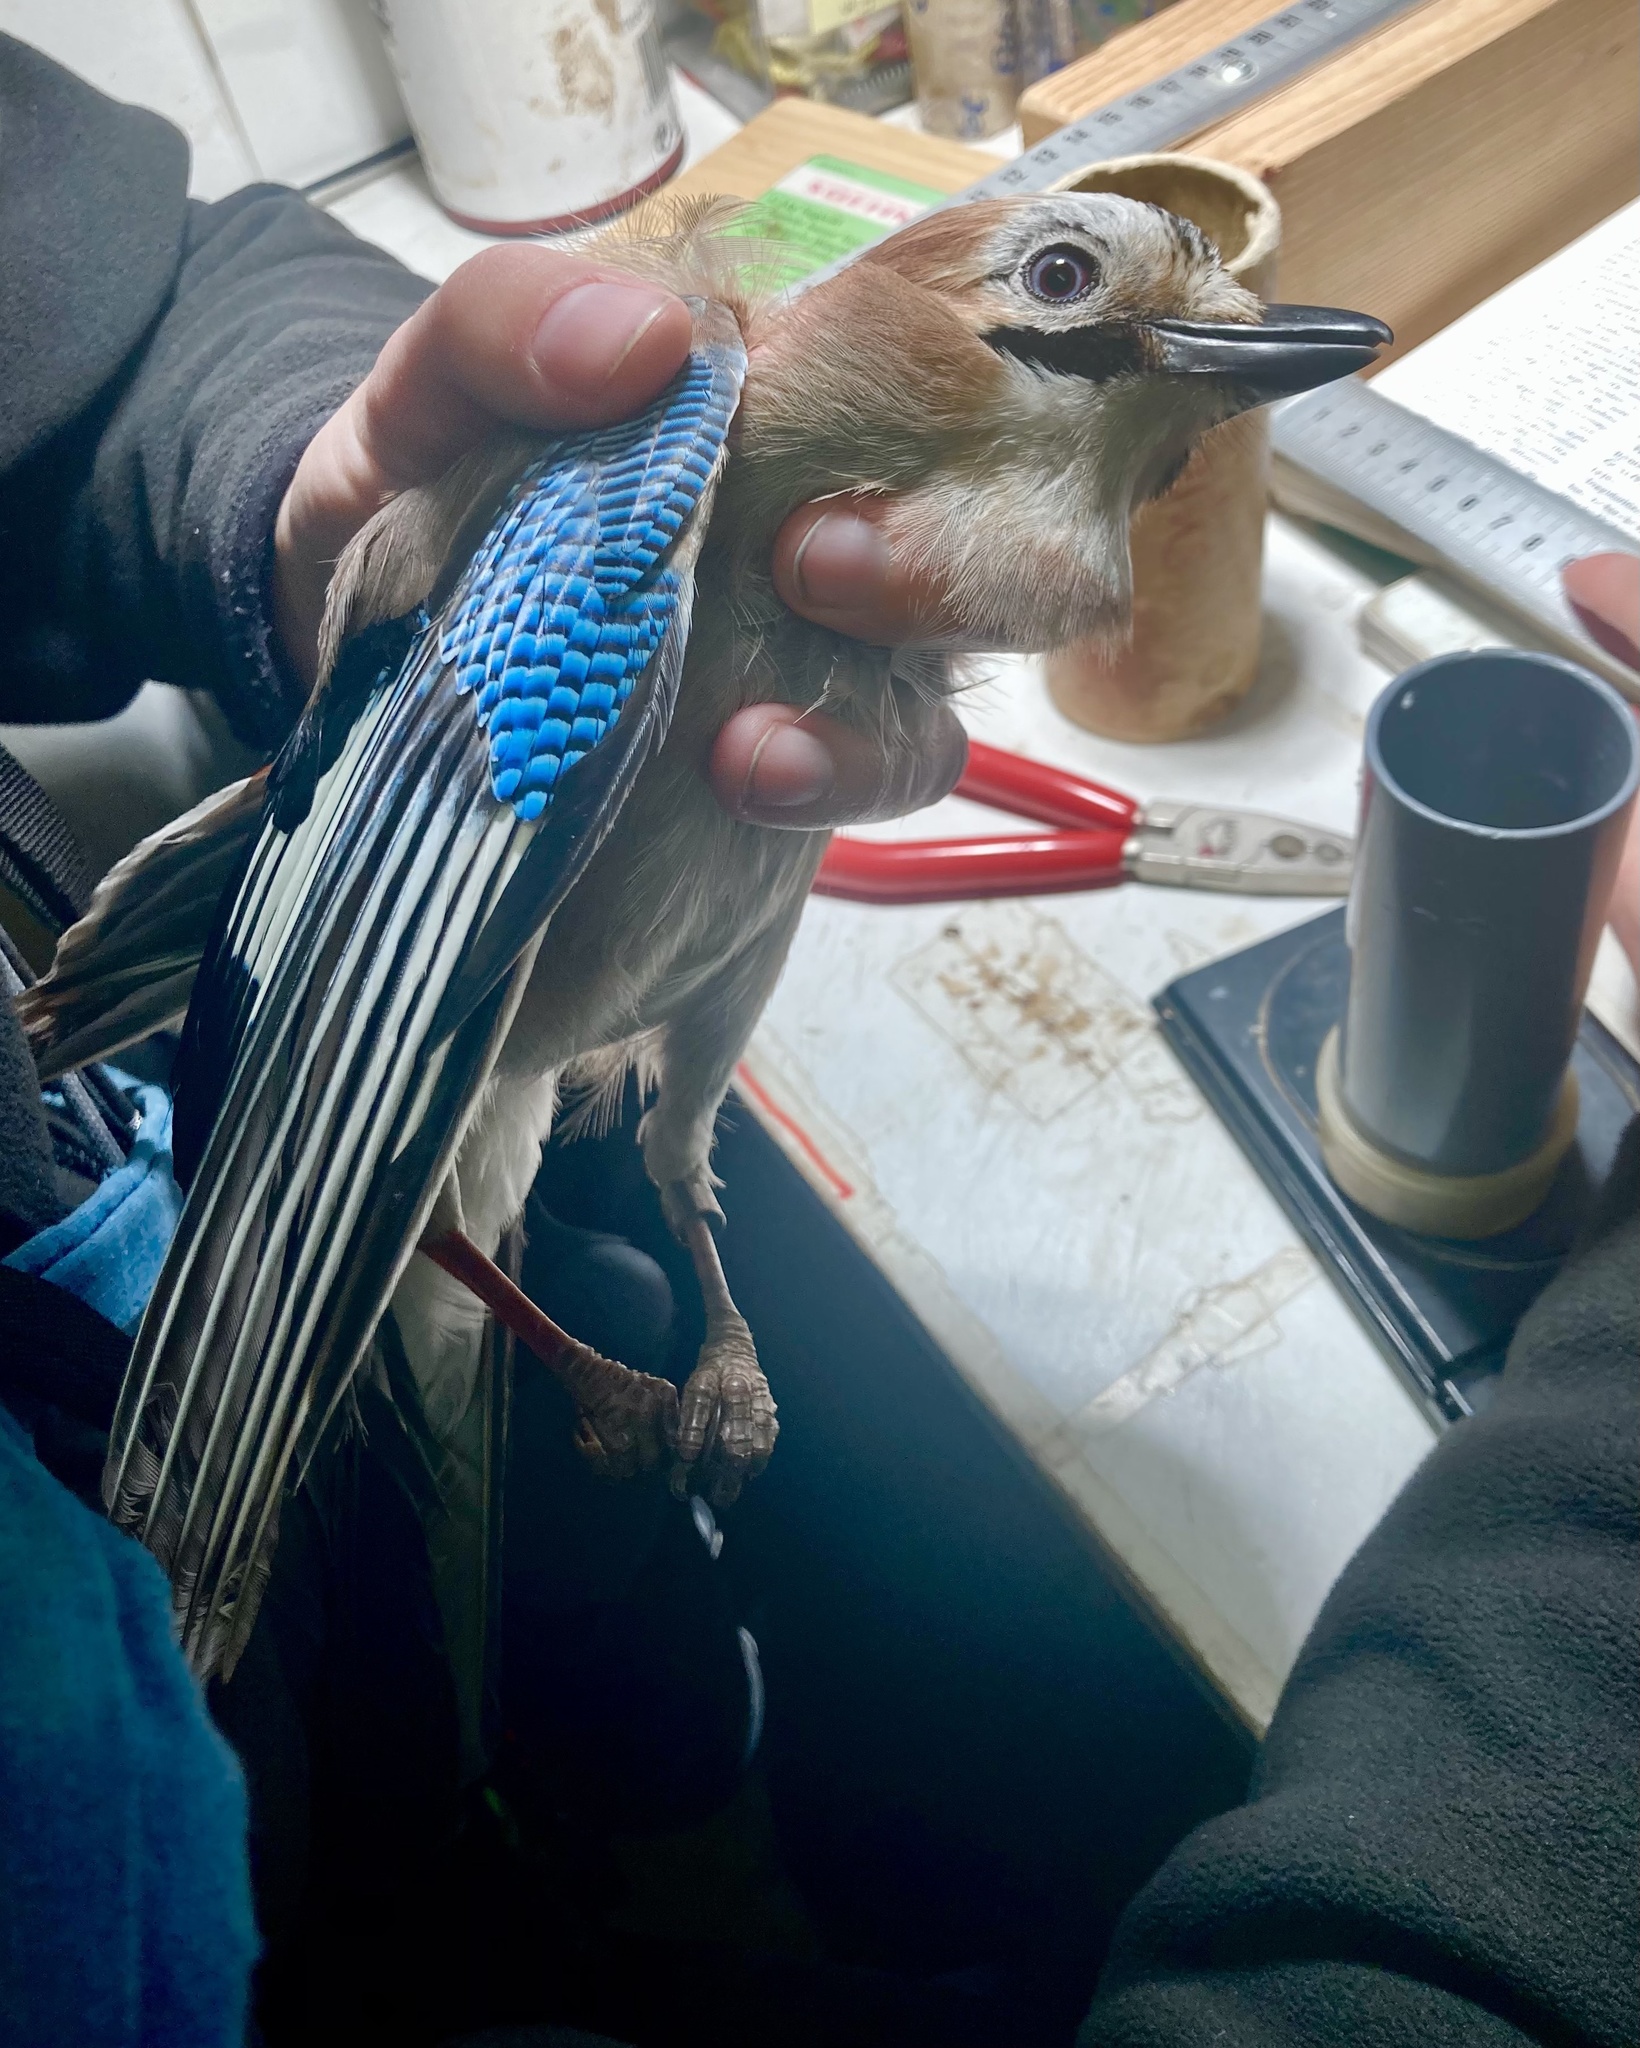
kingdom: Animalia
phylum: Chordata
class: Aves
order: Passeriformes
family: Corvidae
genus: Garrulus
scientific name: Garrulus glandarius
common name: Eurasian jay
